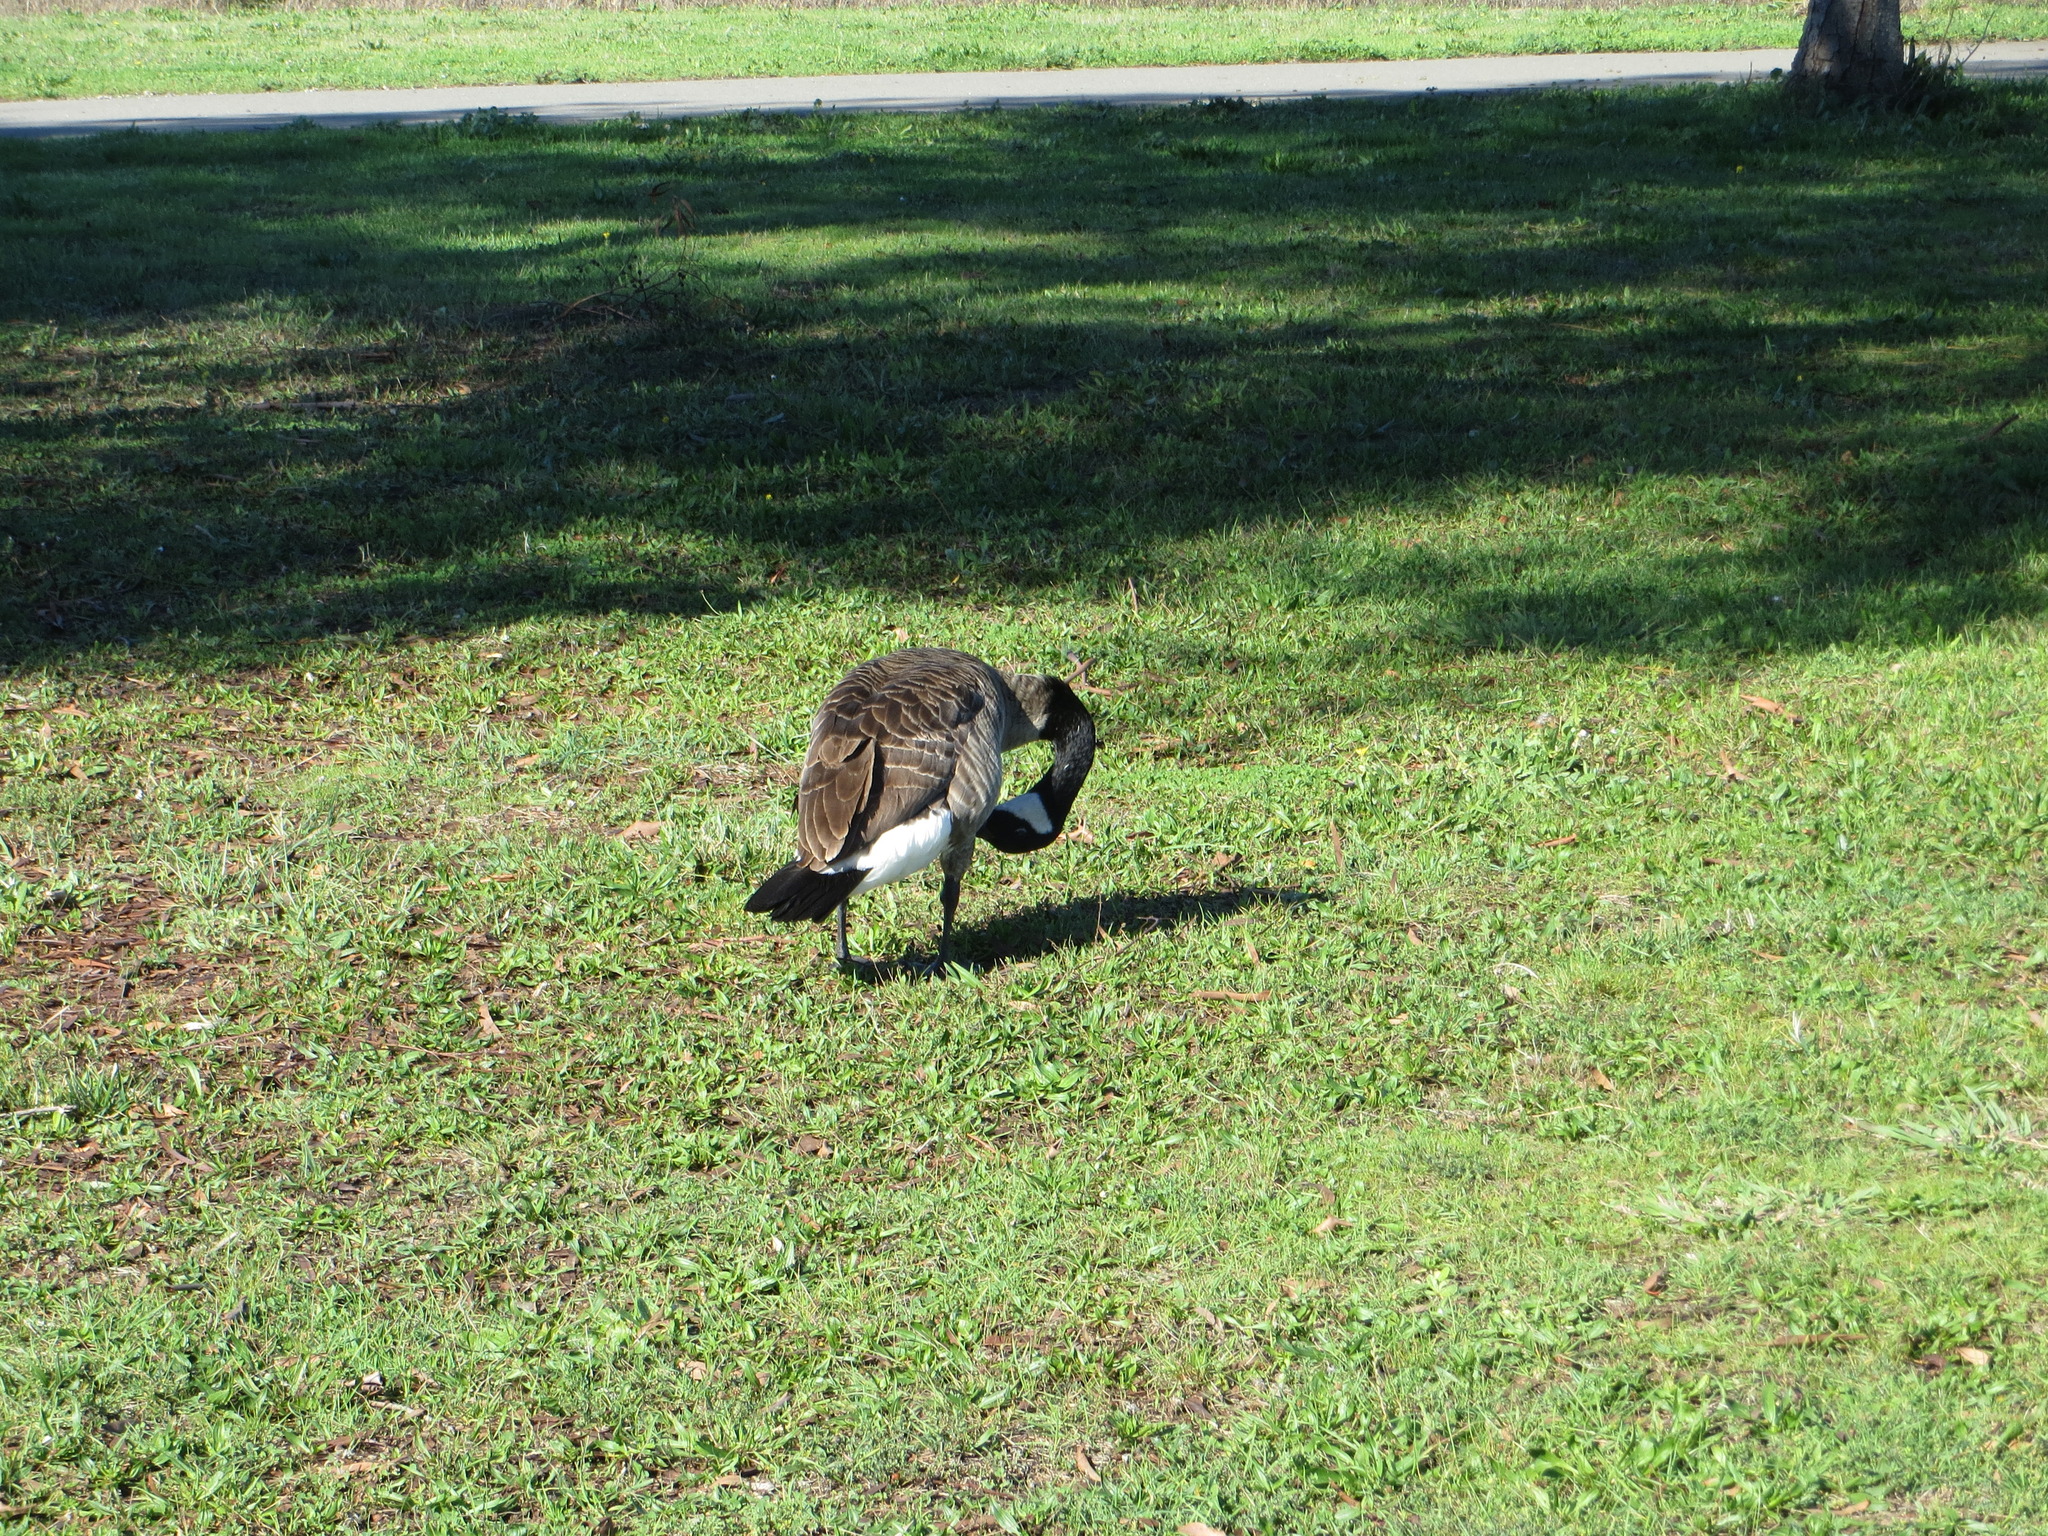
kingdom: Animalia
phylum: Chordata
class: Aves
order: Anseriformes
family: Anatidae
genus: Branta
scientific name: Branta canadensis
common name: Canada goose
